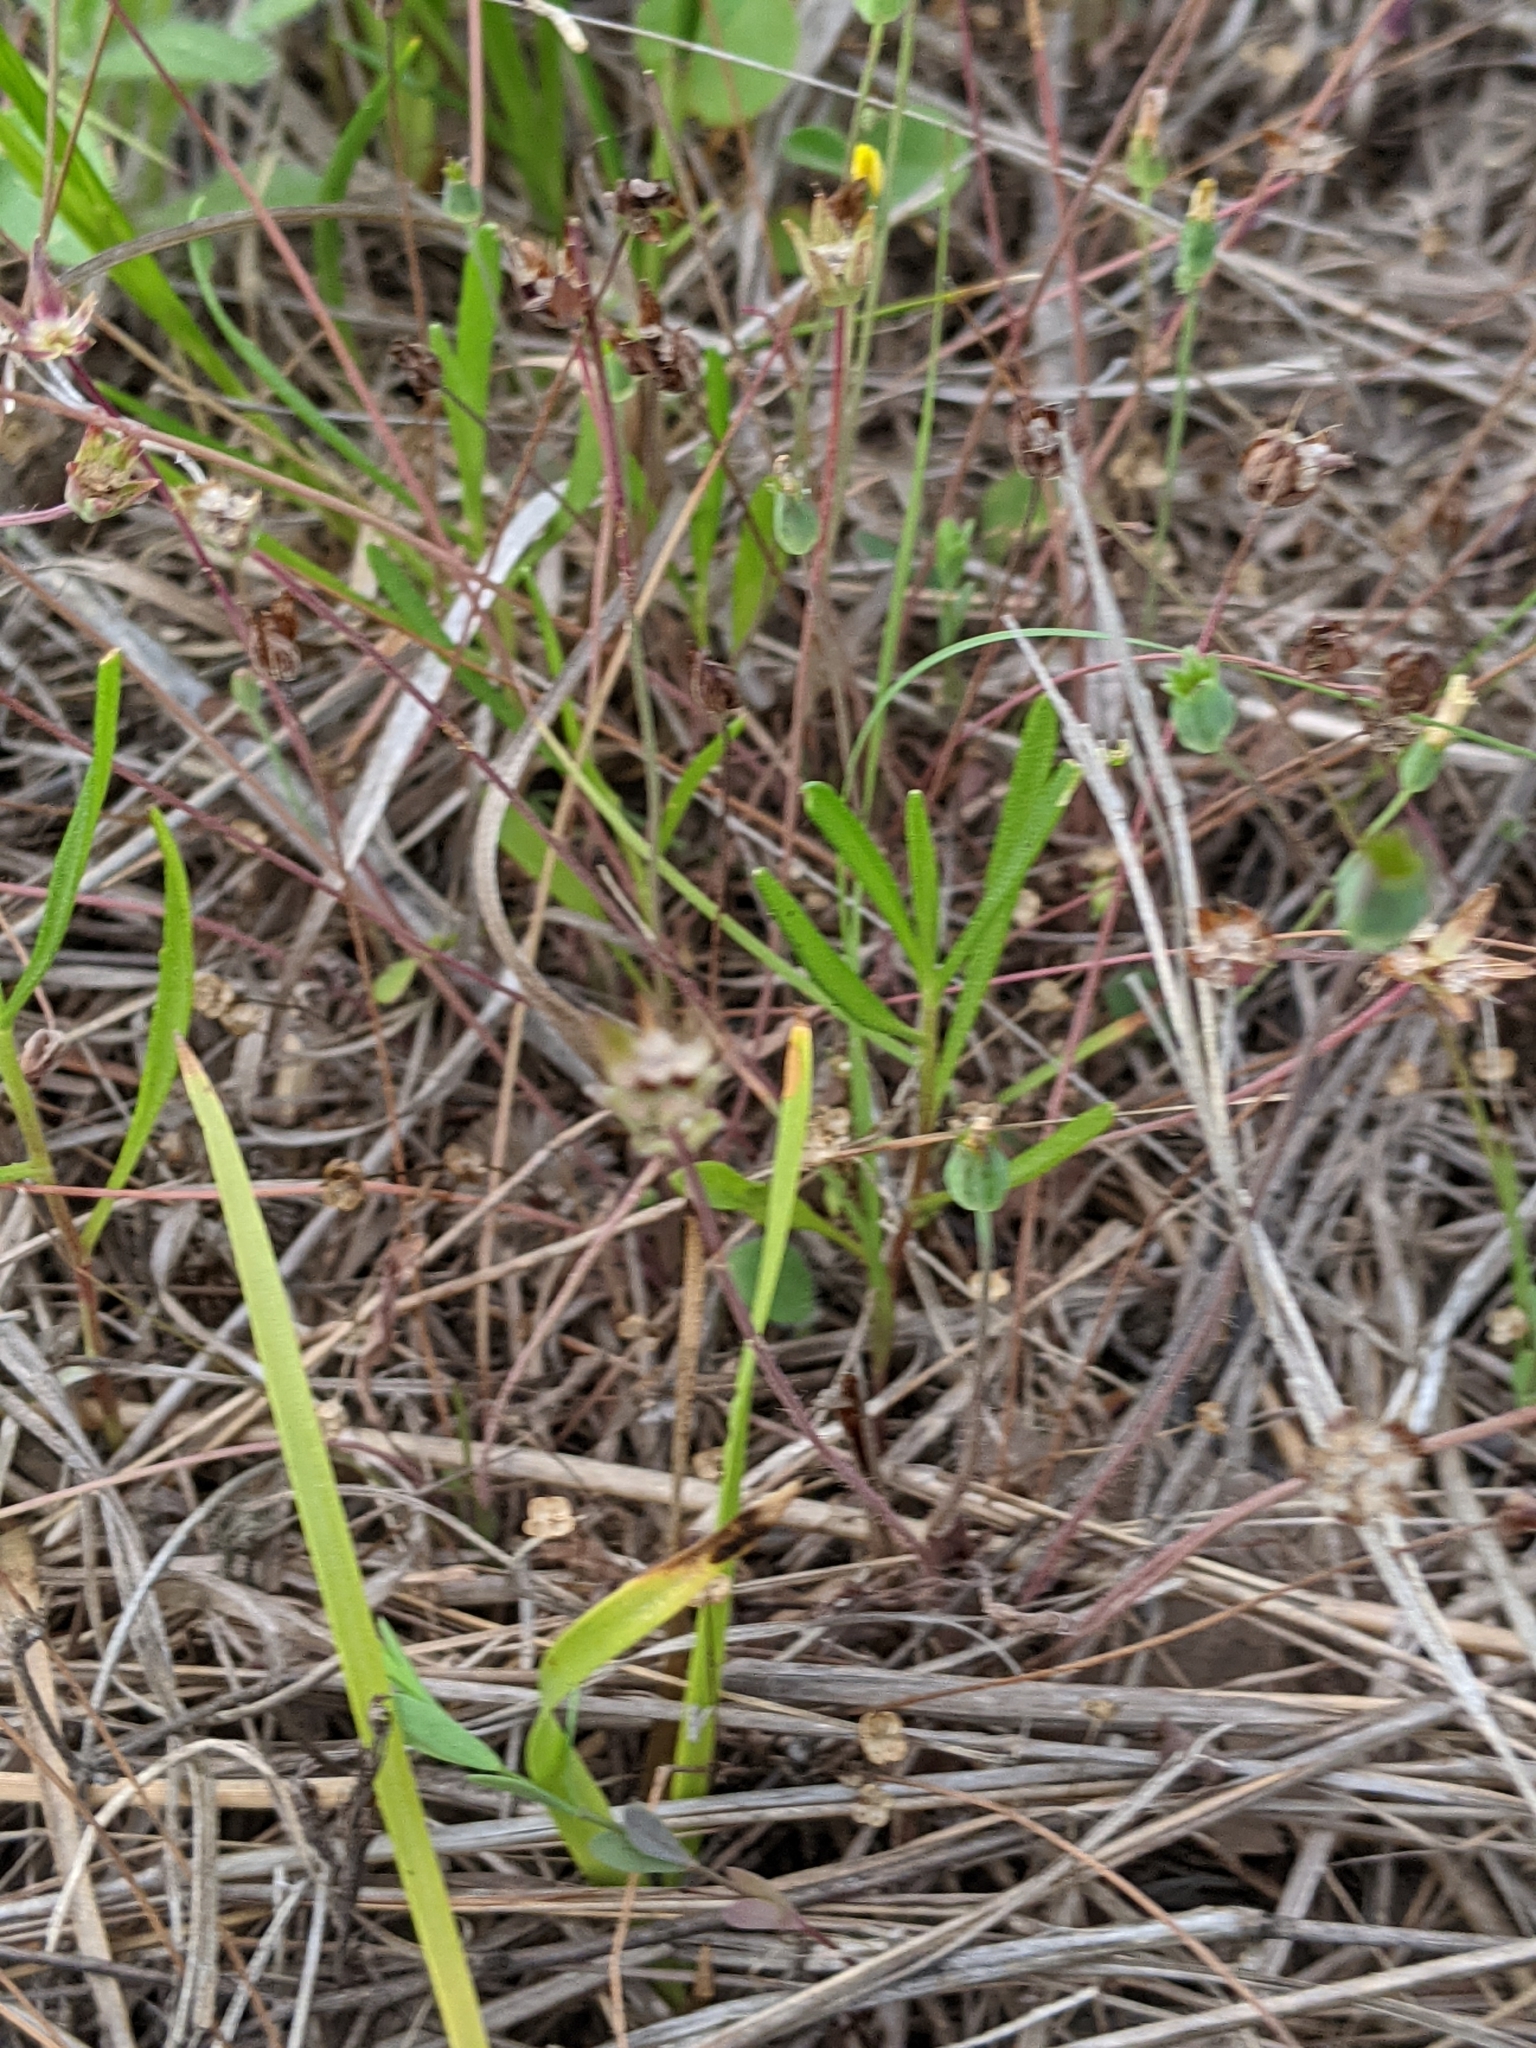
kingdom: Plantae
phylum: Tracheophyta
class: Magnoliopsida
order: Asterales
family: Asteraceae
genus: Krigia
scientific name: Krigia occidentalis
